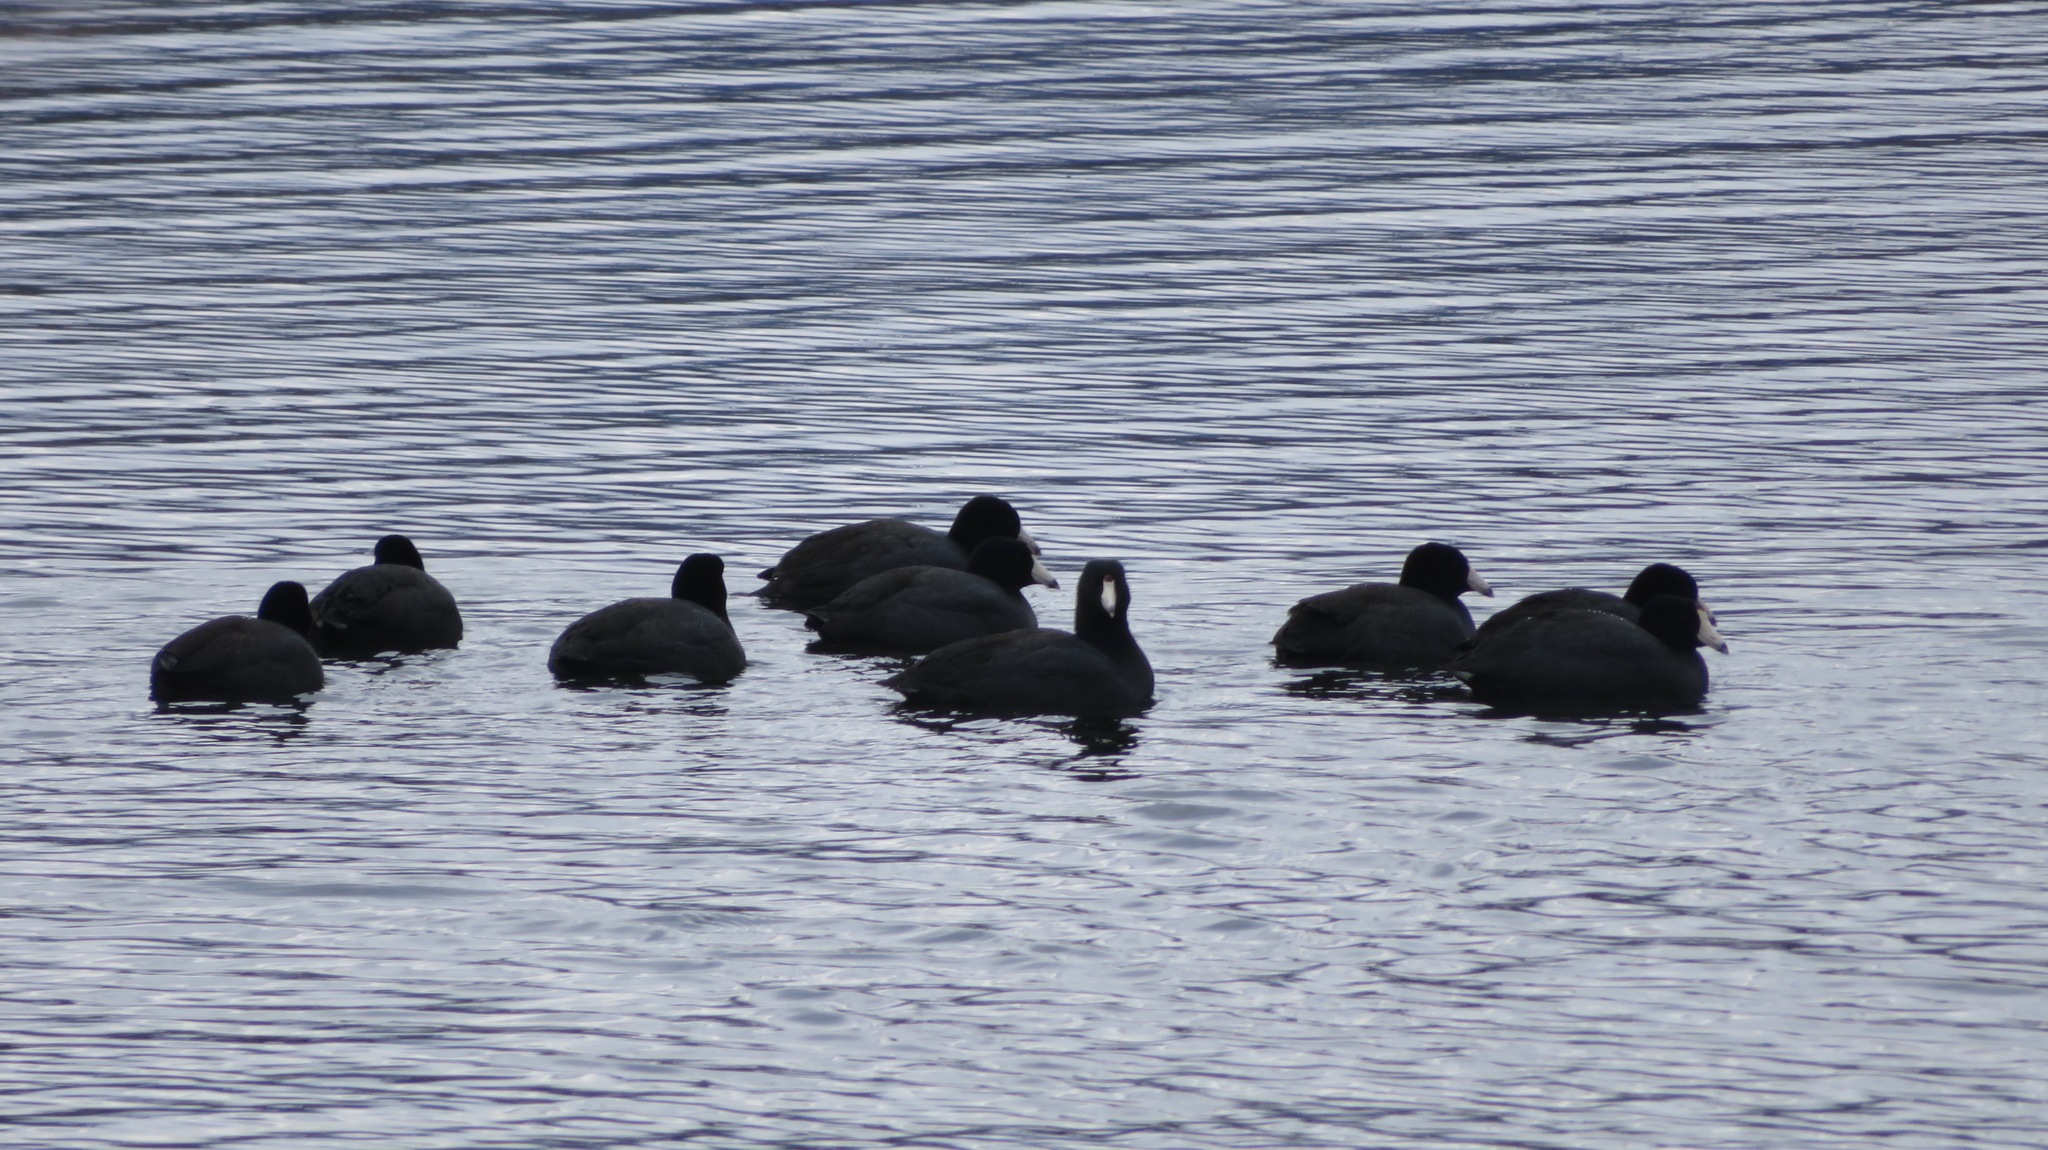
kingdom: Animalia
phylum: Chordata
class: Aves
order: Gruiformes
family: Rallidae
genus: Fulica
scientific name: Fulica americana
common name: American coot
